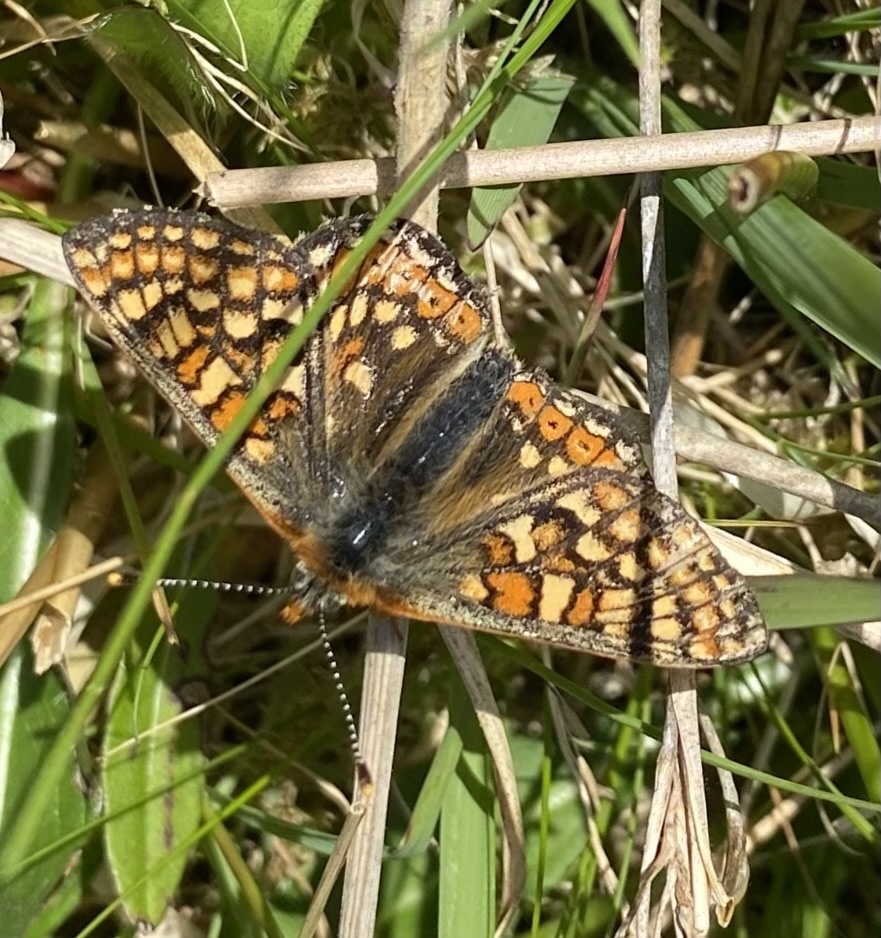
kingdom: Animalia
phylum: Arthropoda
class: Insecta
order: Lepidoptera
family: Nymphalidae
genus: Euphydryas
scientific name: Euphydryas aurinia
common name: Marsh fritillary
